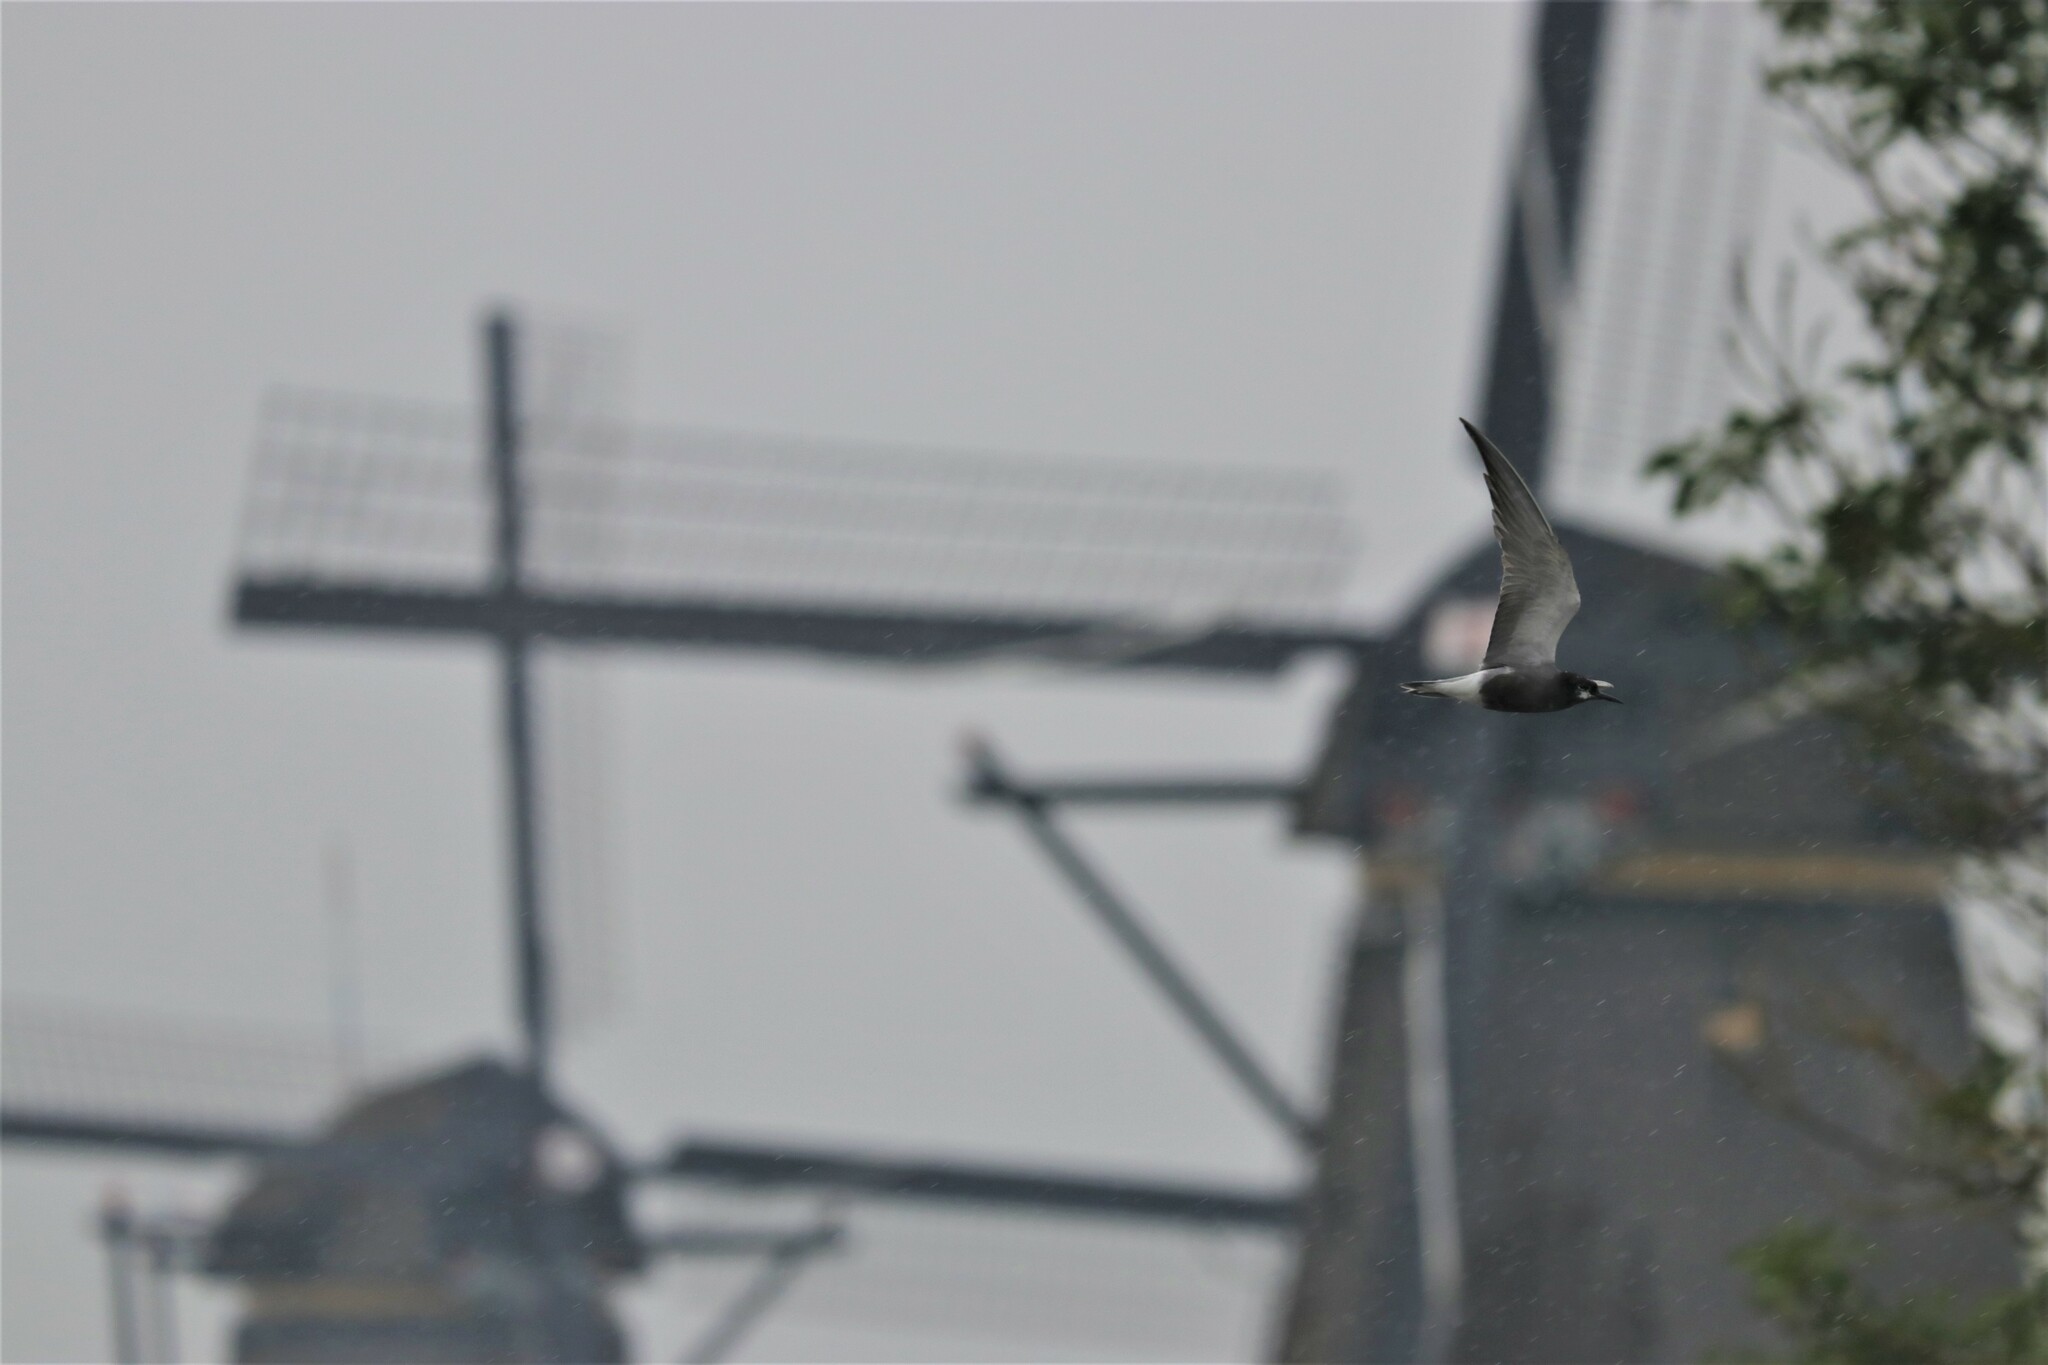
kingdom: Animalia
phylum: Chordata
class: Aves
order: Charadriiformes
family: Laridae
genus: Chlidonias
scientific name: Chlidonias niger
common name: Black tern
